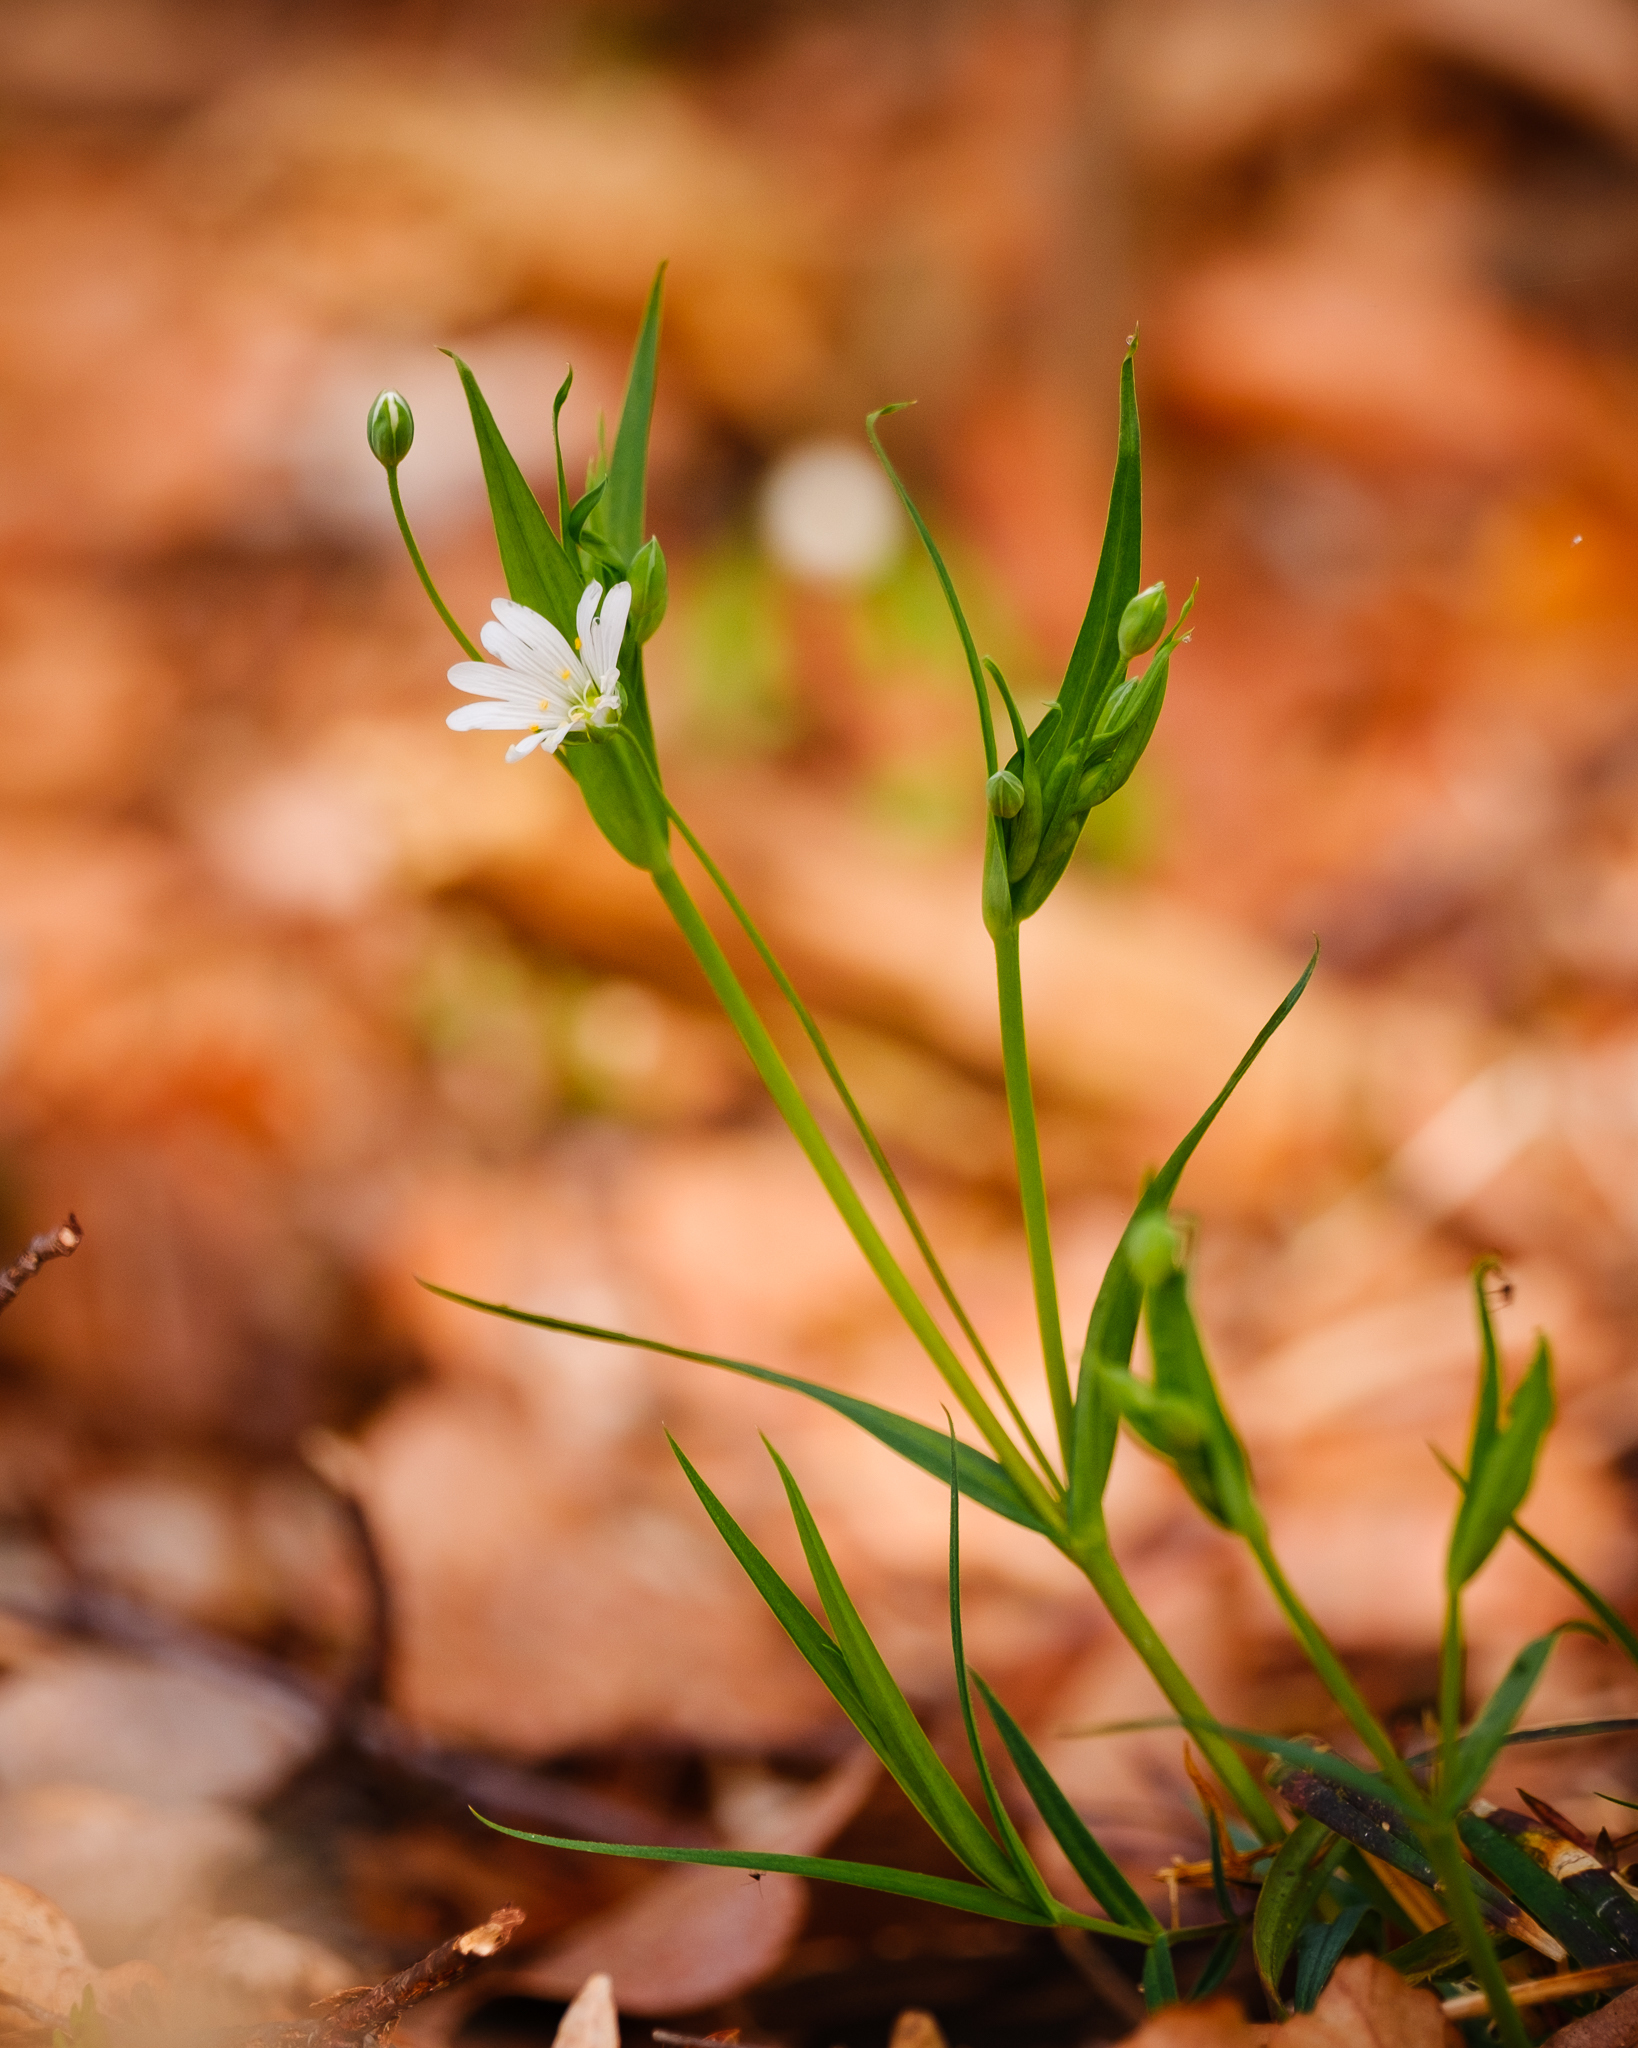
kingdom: Plantae
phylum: Tracheophyta
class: Magnoliopsida
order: Caryophyllales
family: Caryophyllaceae
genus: Rabelera
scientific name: Rabelera holostea
